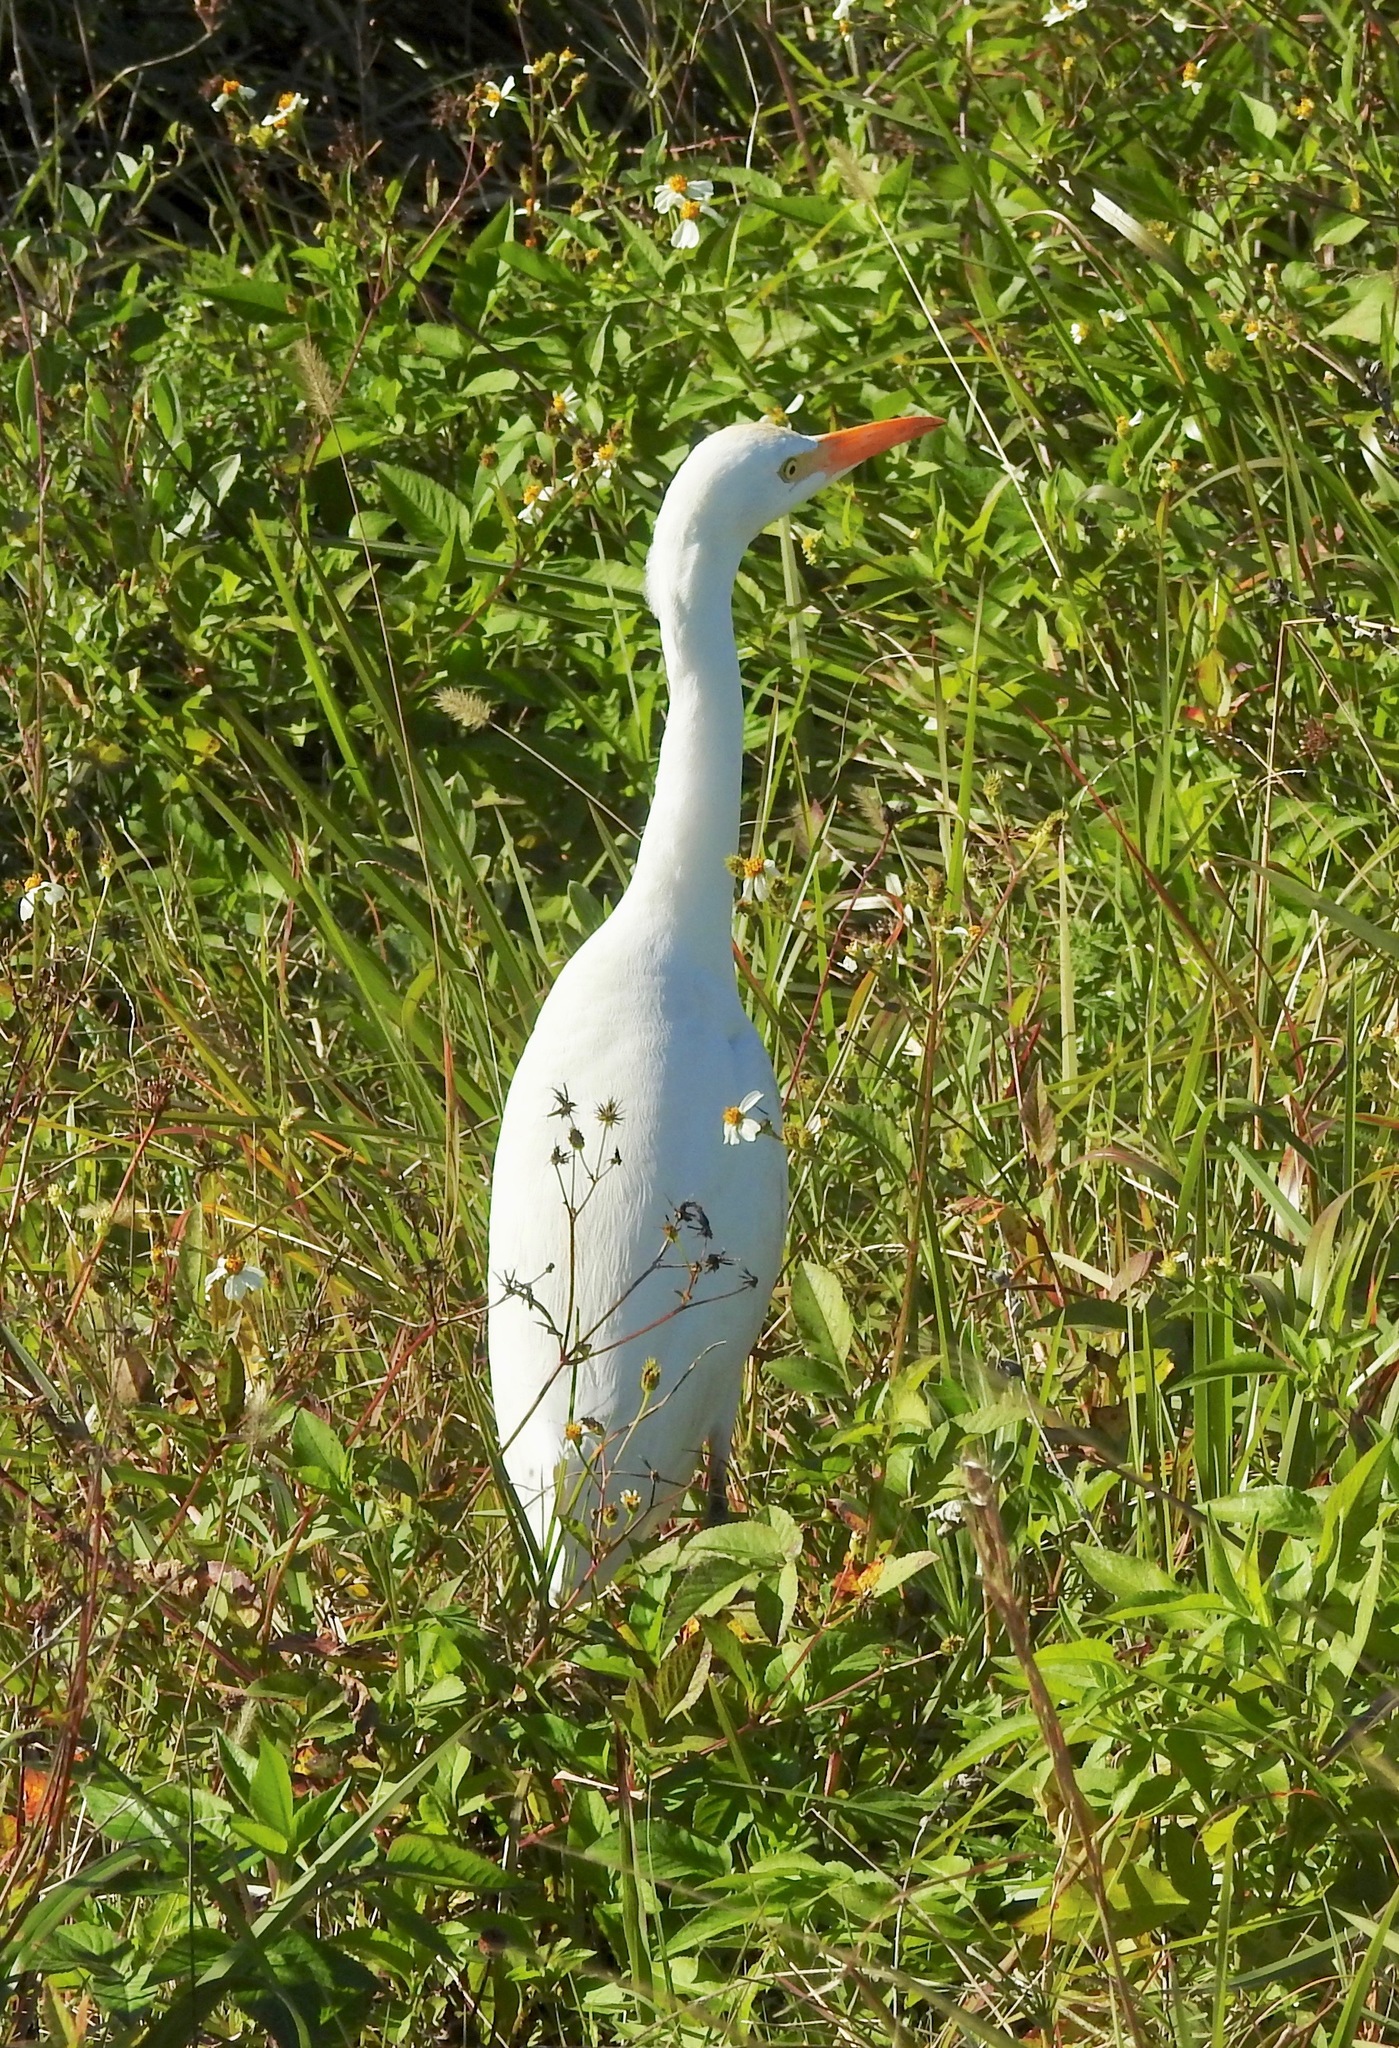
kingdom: Animalia
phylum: Chordata
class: Aves
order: Pelecaniformes
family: Ardeidae
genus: Bubulcus
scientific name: Bubulcus ibis
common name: Cattle egret
